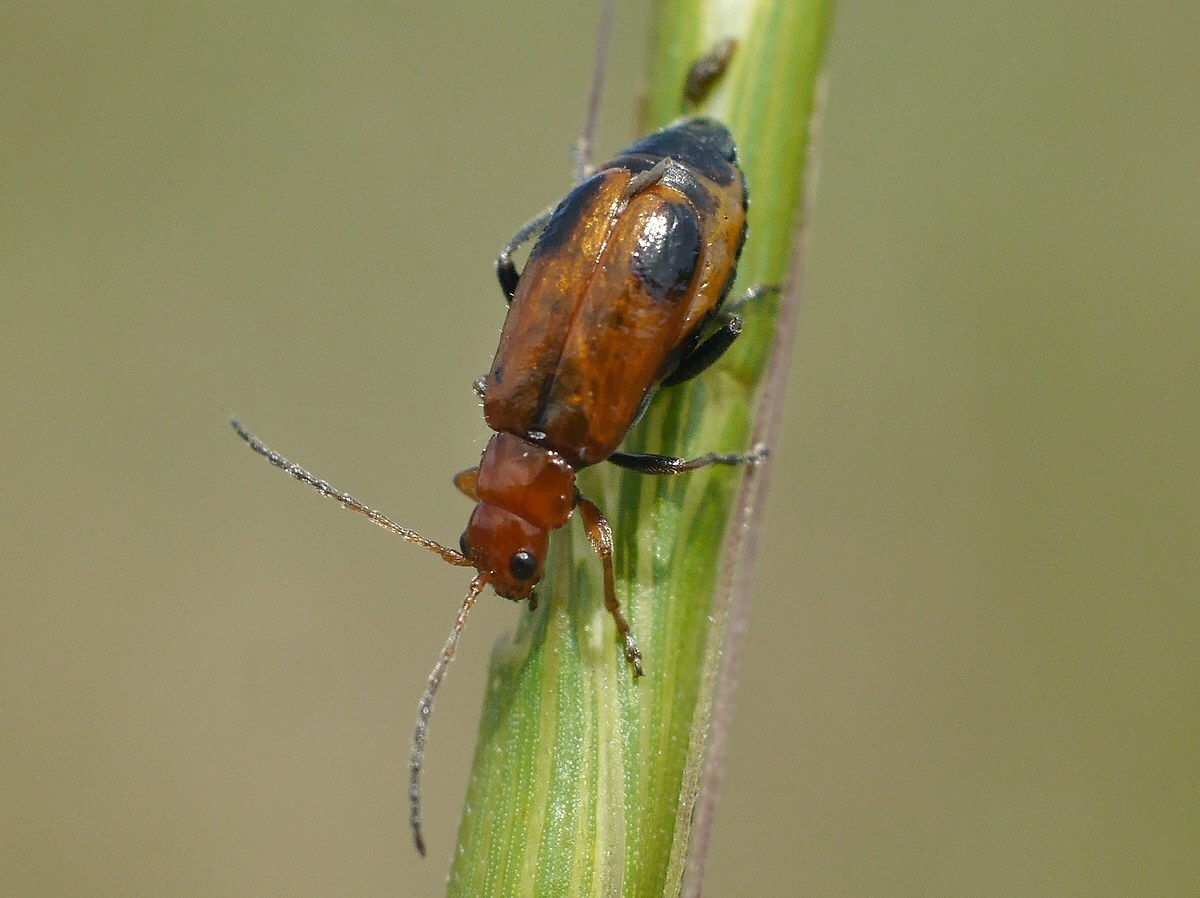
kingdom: Animalia
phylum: Arthropoda
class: Insecta
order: Coleoptera
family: Chrysomelidae
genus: Phyllobrotica
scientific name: Phyllobrotica adusta
